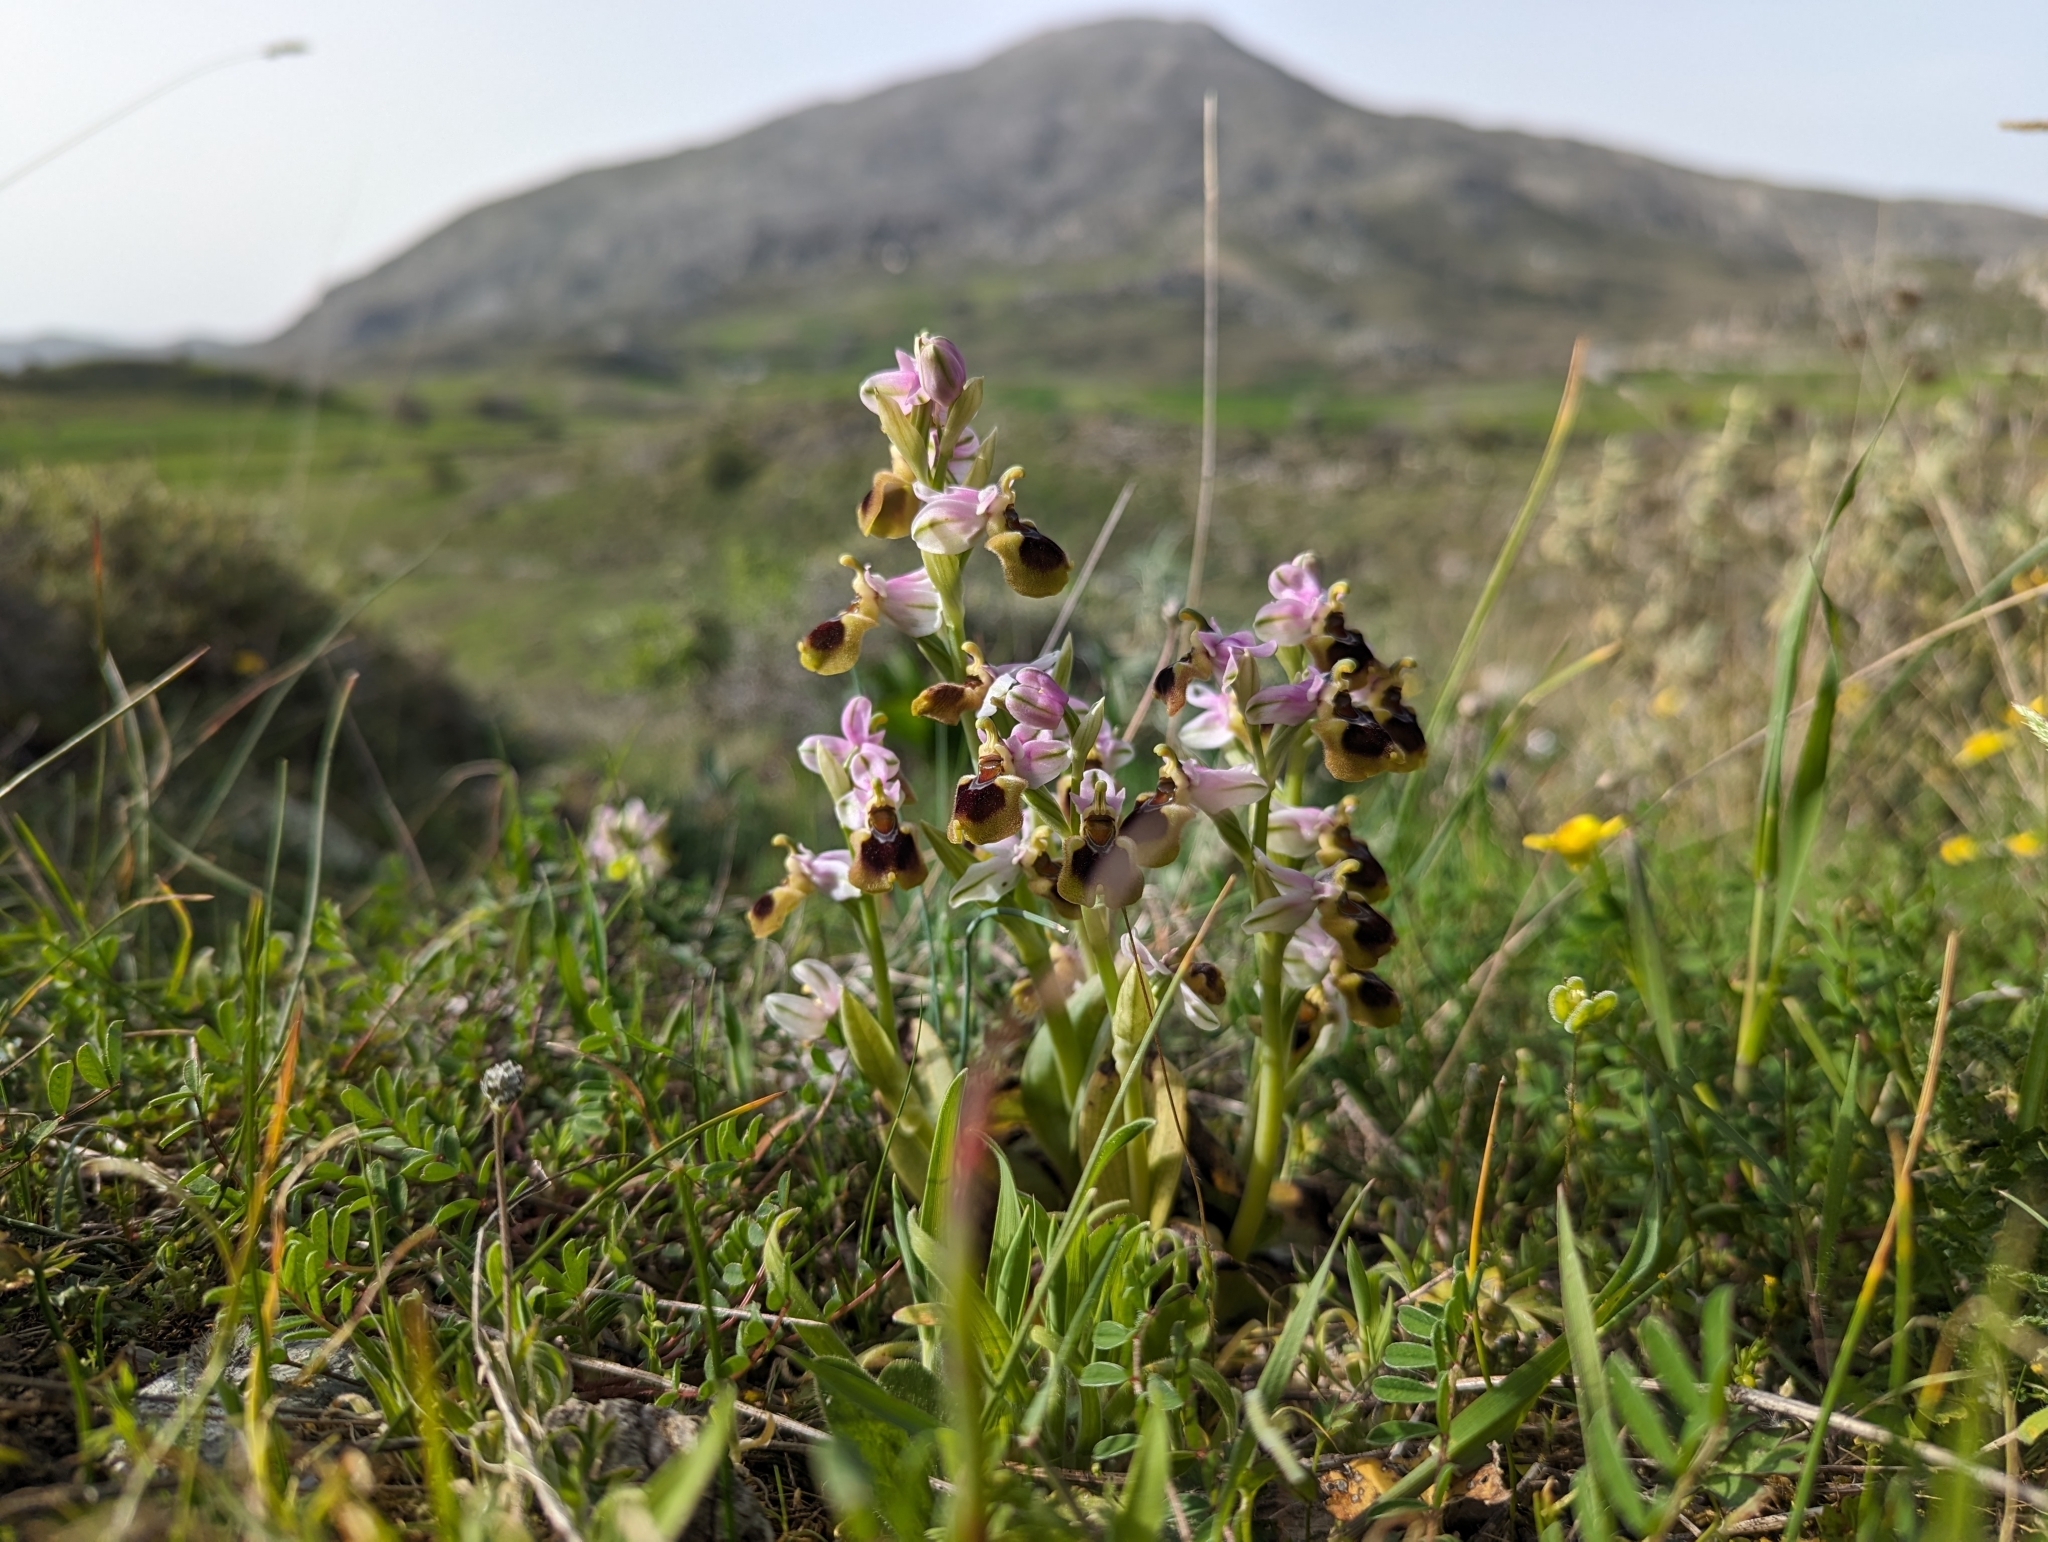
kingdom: Plantae
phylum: Tracheophyta
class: Liliopsida
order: Asparagales
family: Orchidaceae
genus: Ophrys
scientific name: Ophrys tenthredinifera
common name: Sawfly orchid
